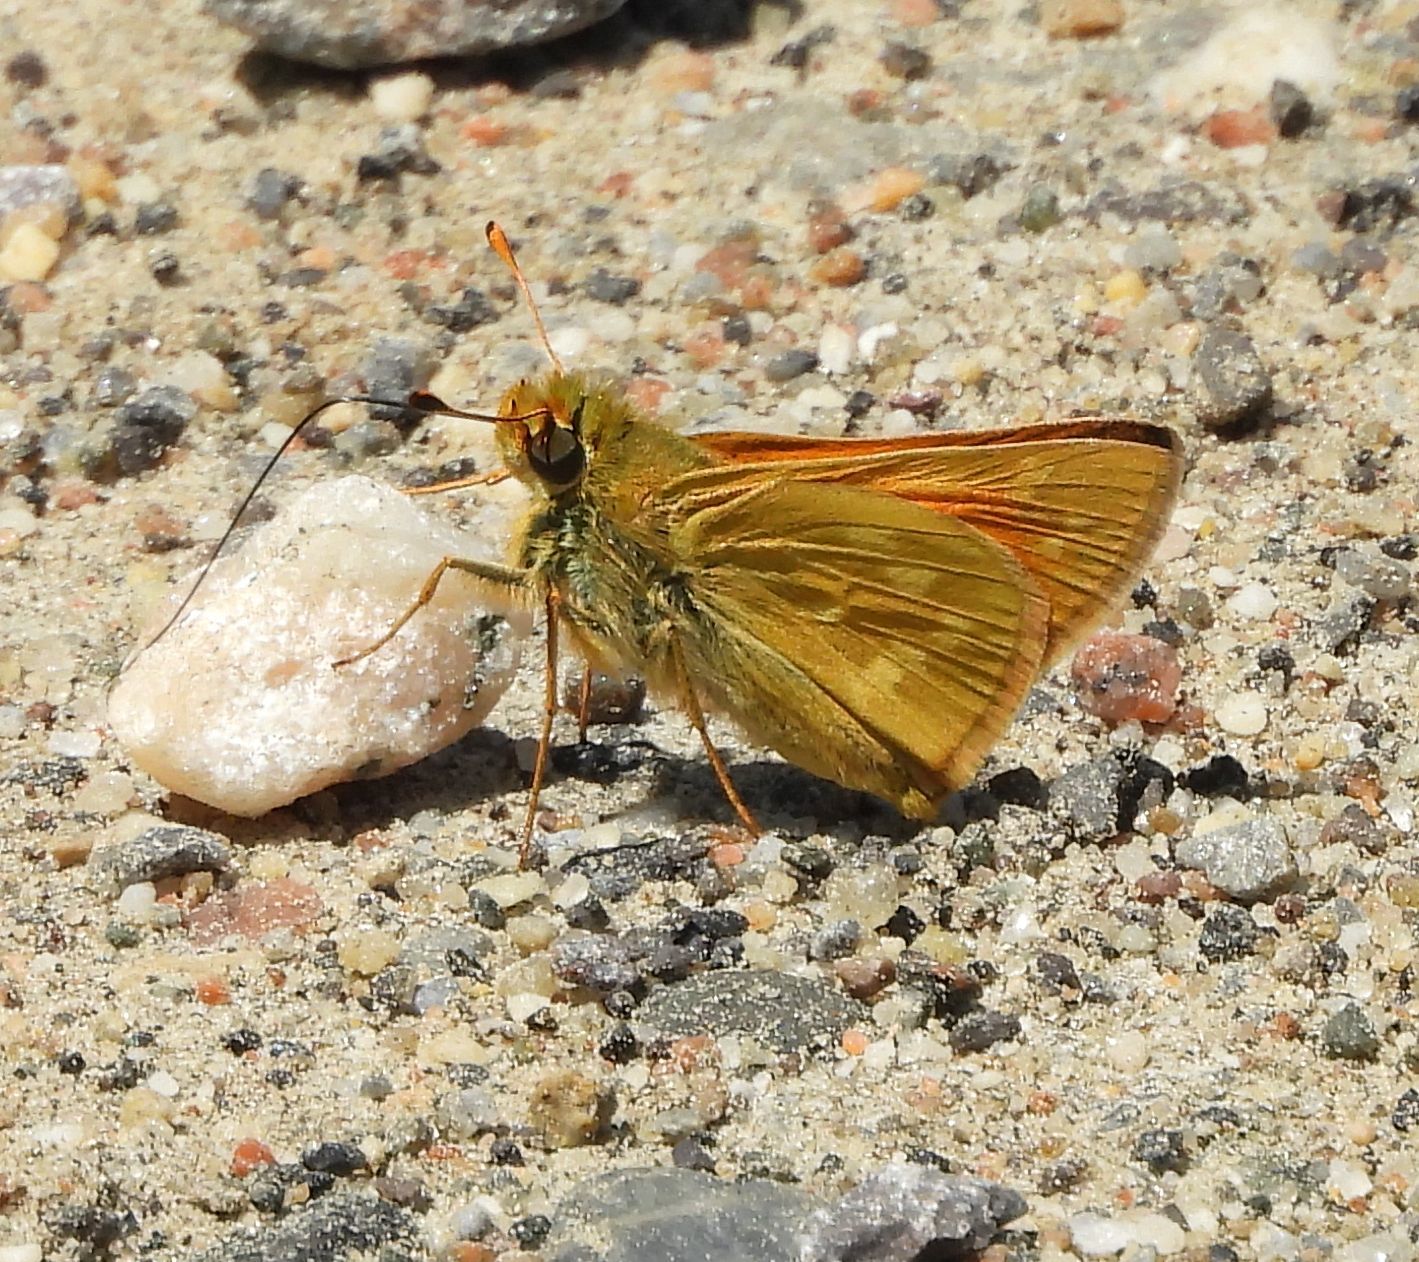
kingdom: Animalia
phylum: Arthropoda
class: Insecta
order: Lepidoptera
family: Hesperiidae
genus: Hesperia
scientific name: Hesperia sassacus
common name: Indian skipper
